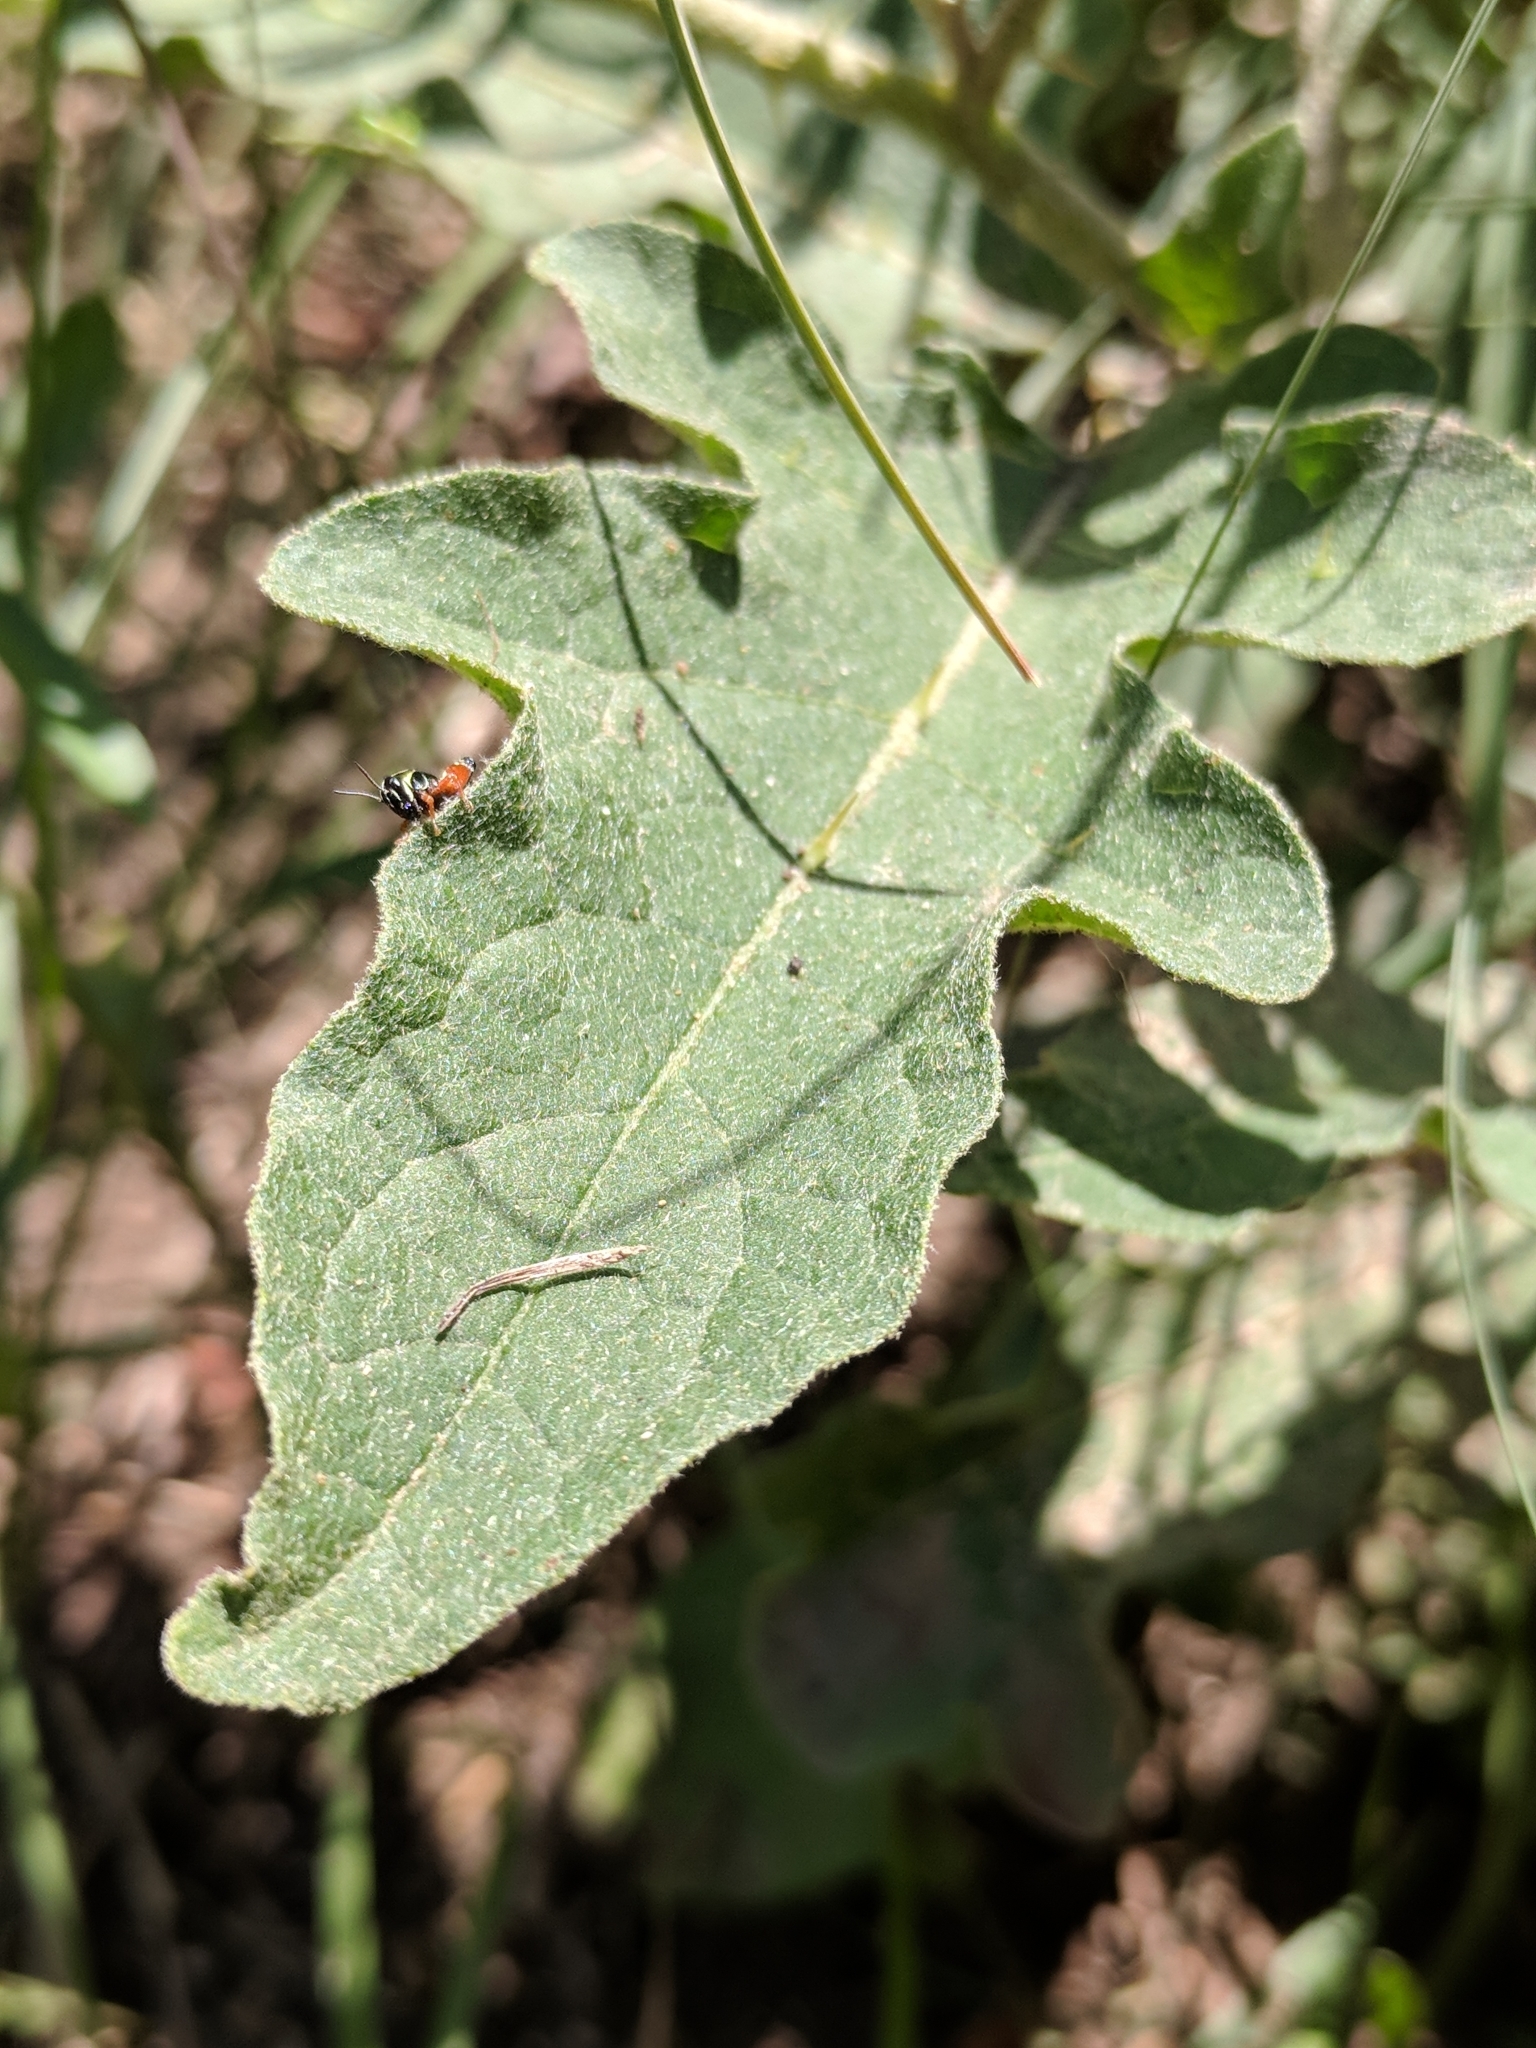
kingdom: Plantae
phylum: Tracheophyta
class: Magnoliopsida
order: Solanales
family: Solanaceae
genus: Solanum
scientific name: Solanum dimidiatum
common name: Carolina horse-nettle
